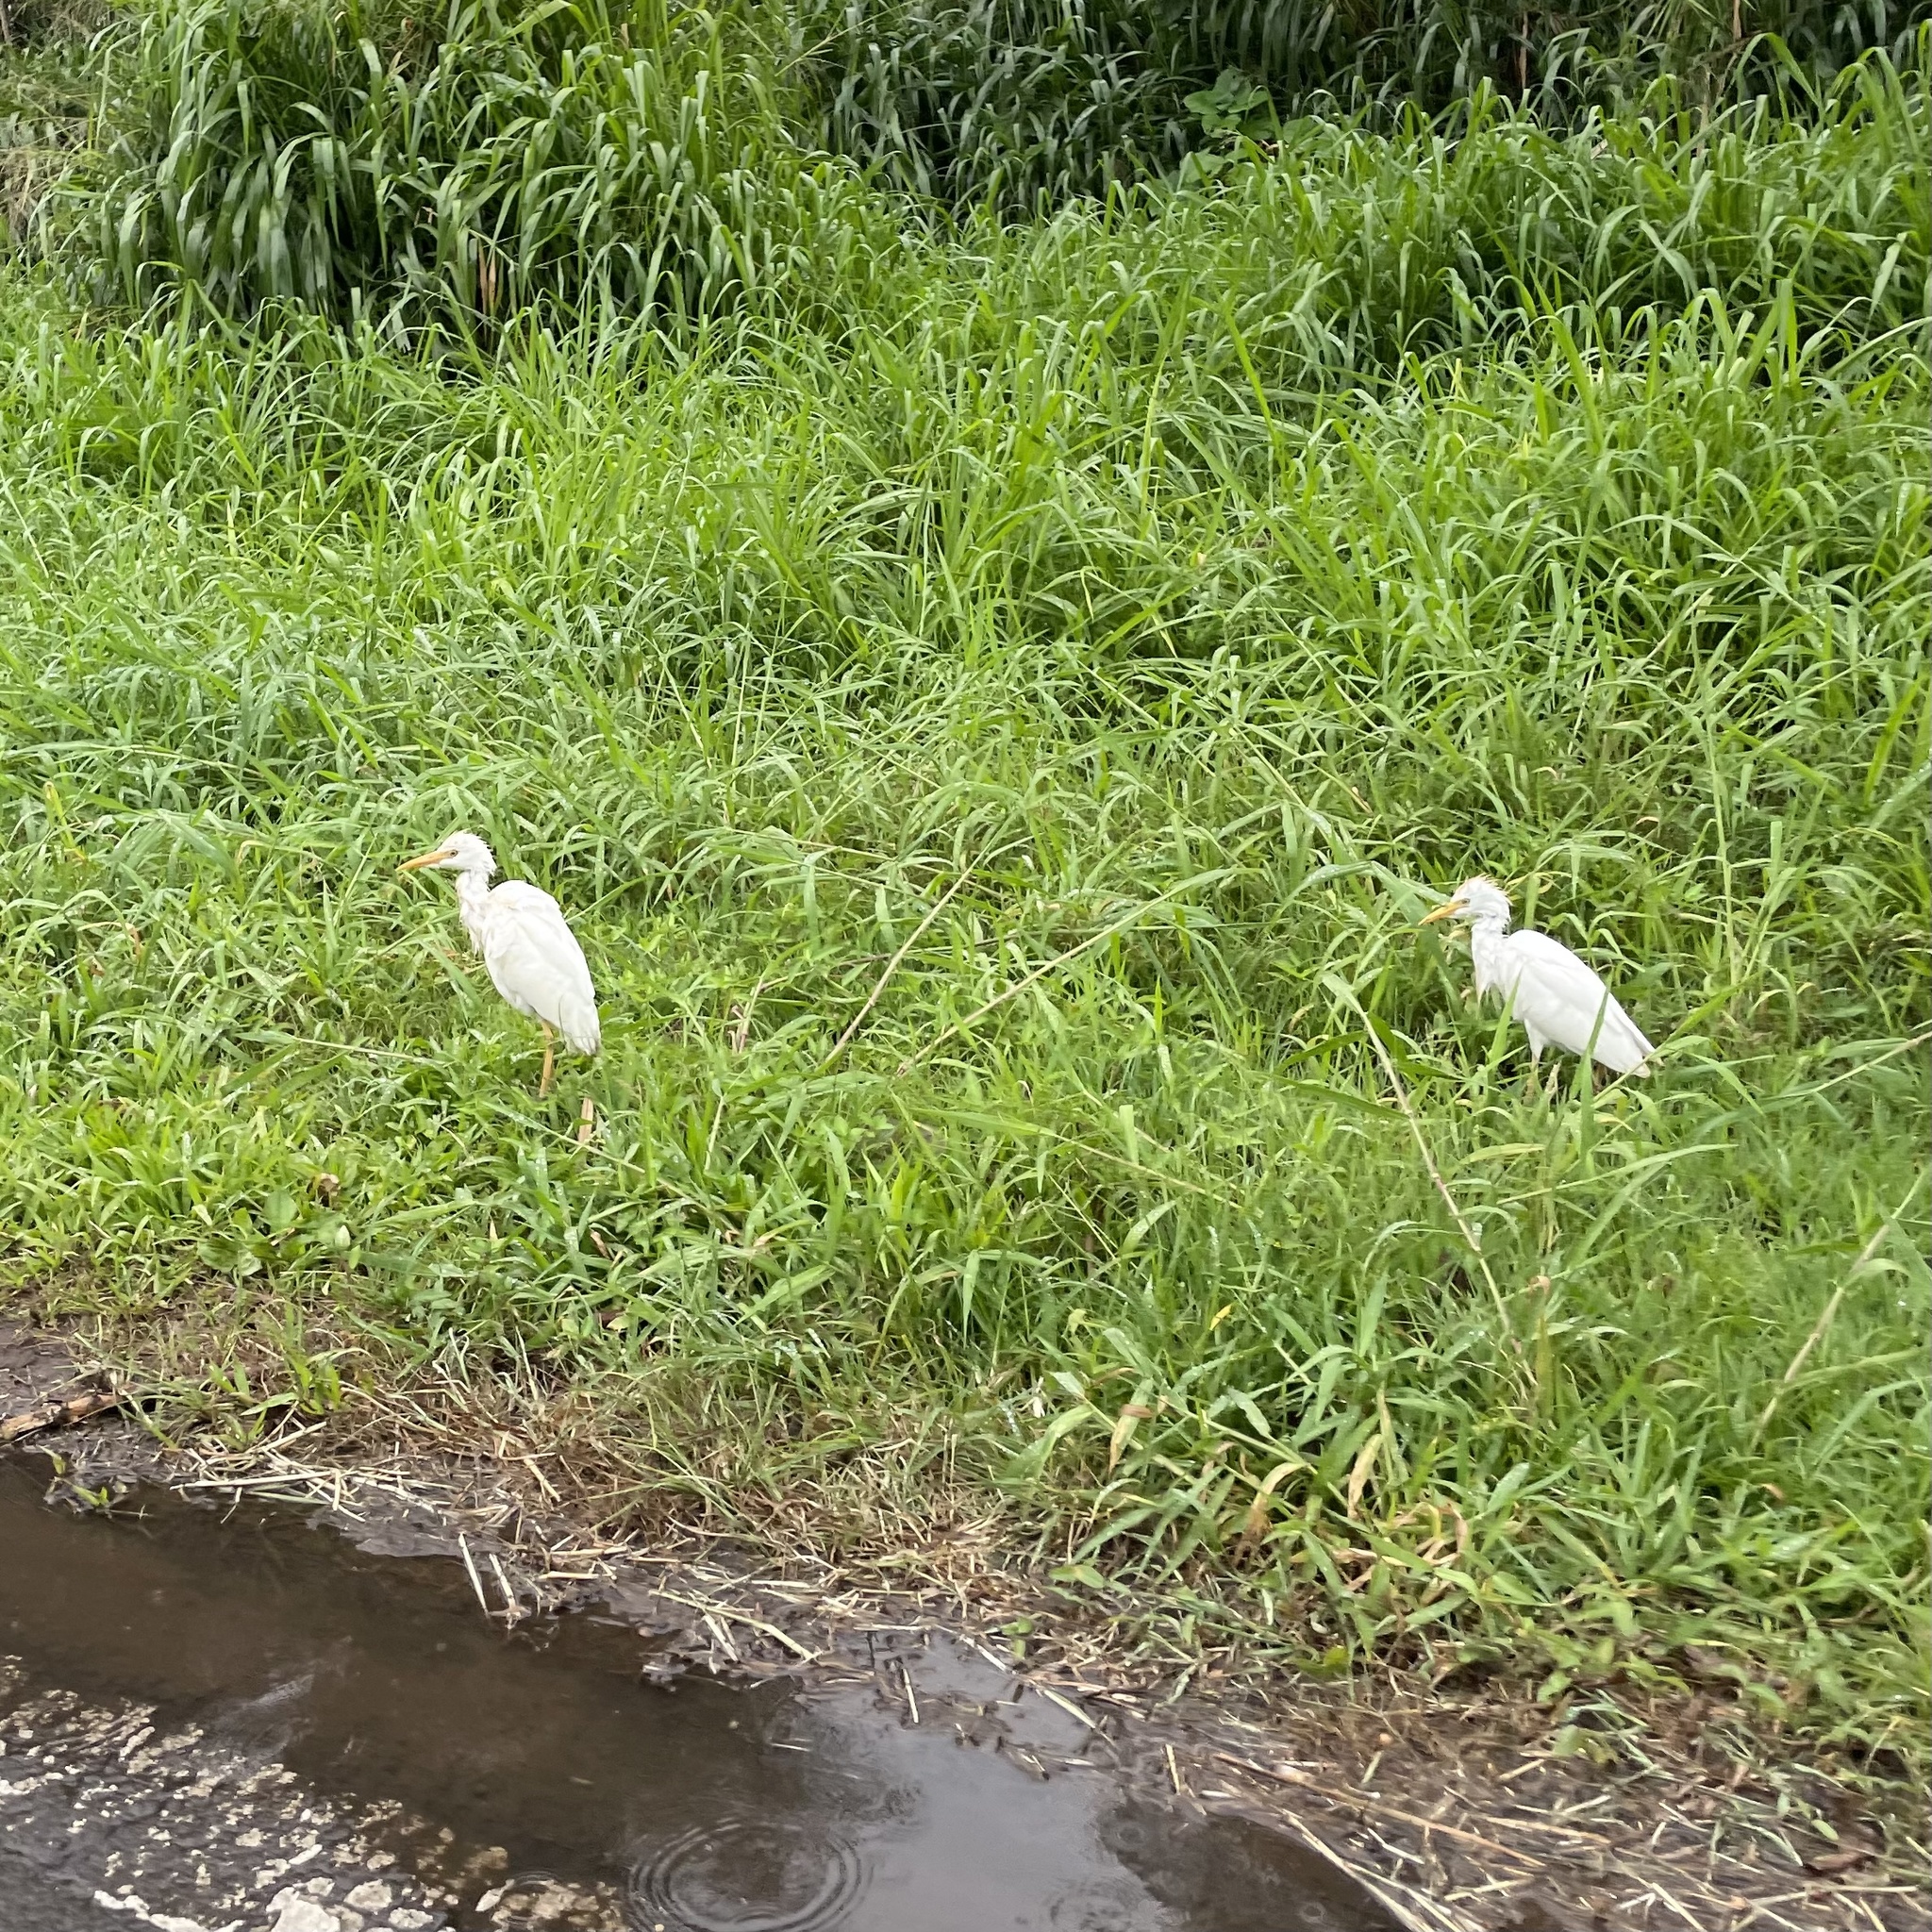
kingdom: Animalia
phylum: Chordata
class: Aves
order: Pelecaniformes
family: Ardeidae
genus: Bubulcus
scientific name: Bubulcus ibis
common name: Cattle egret
